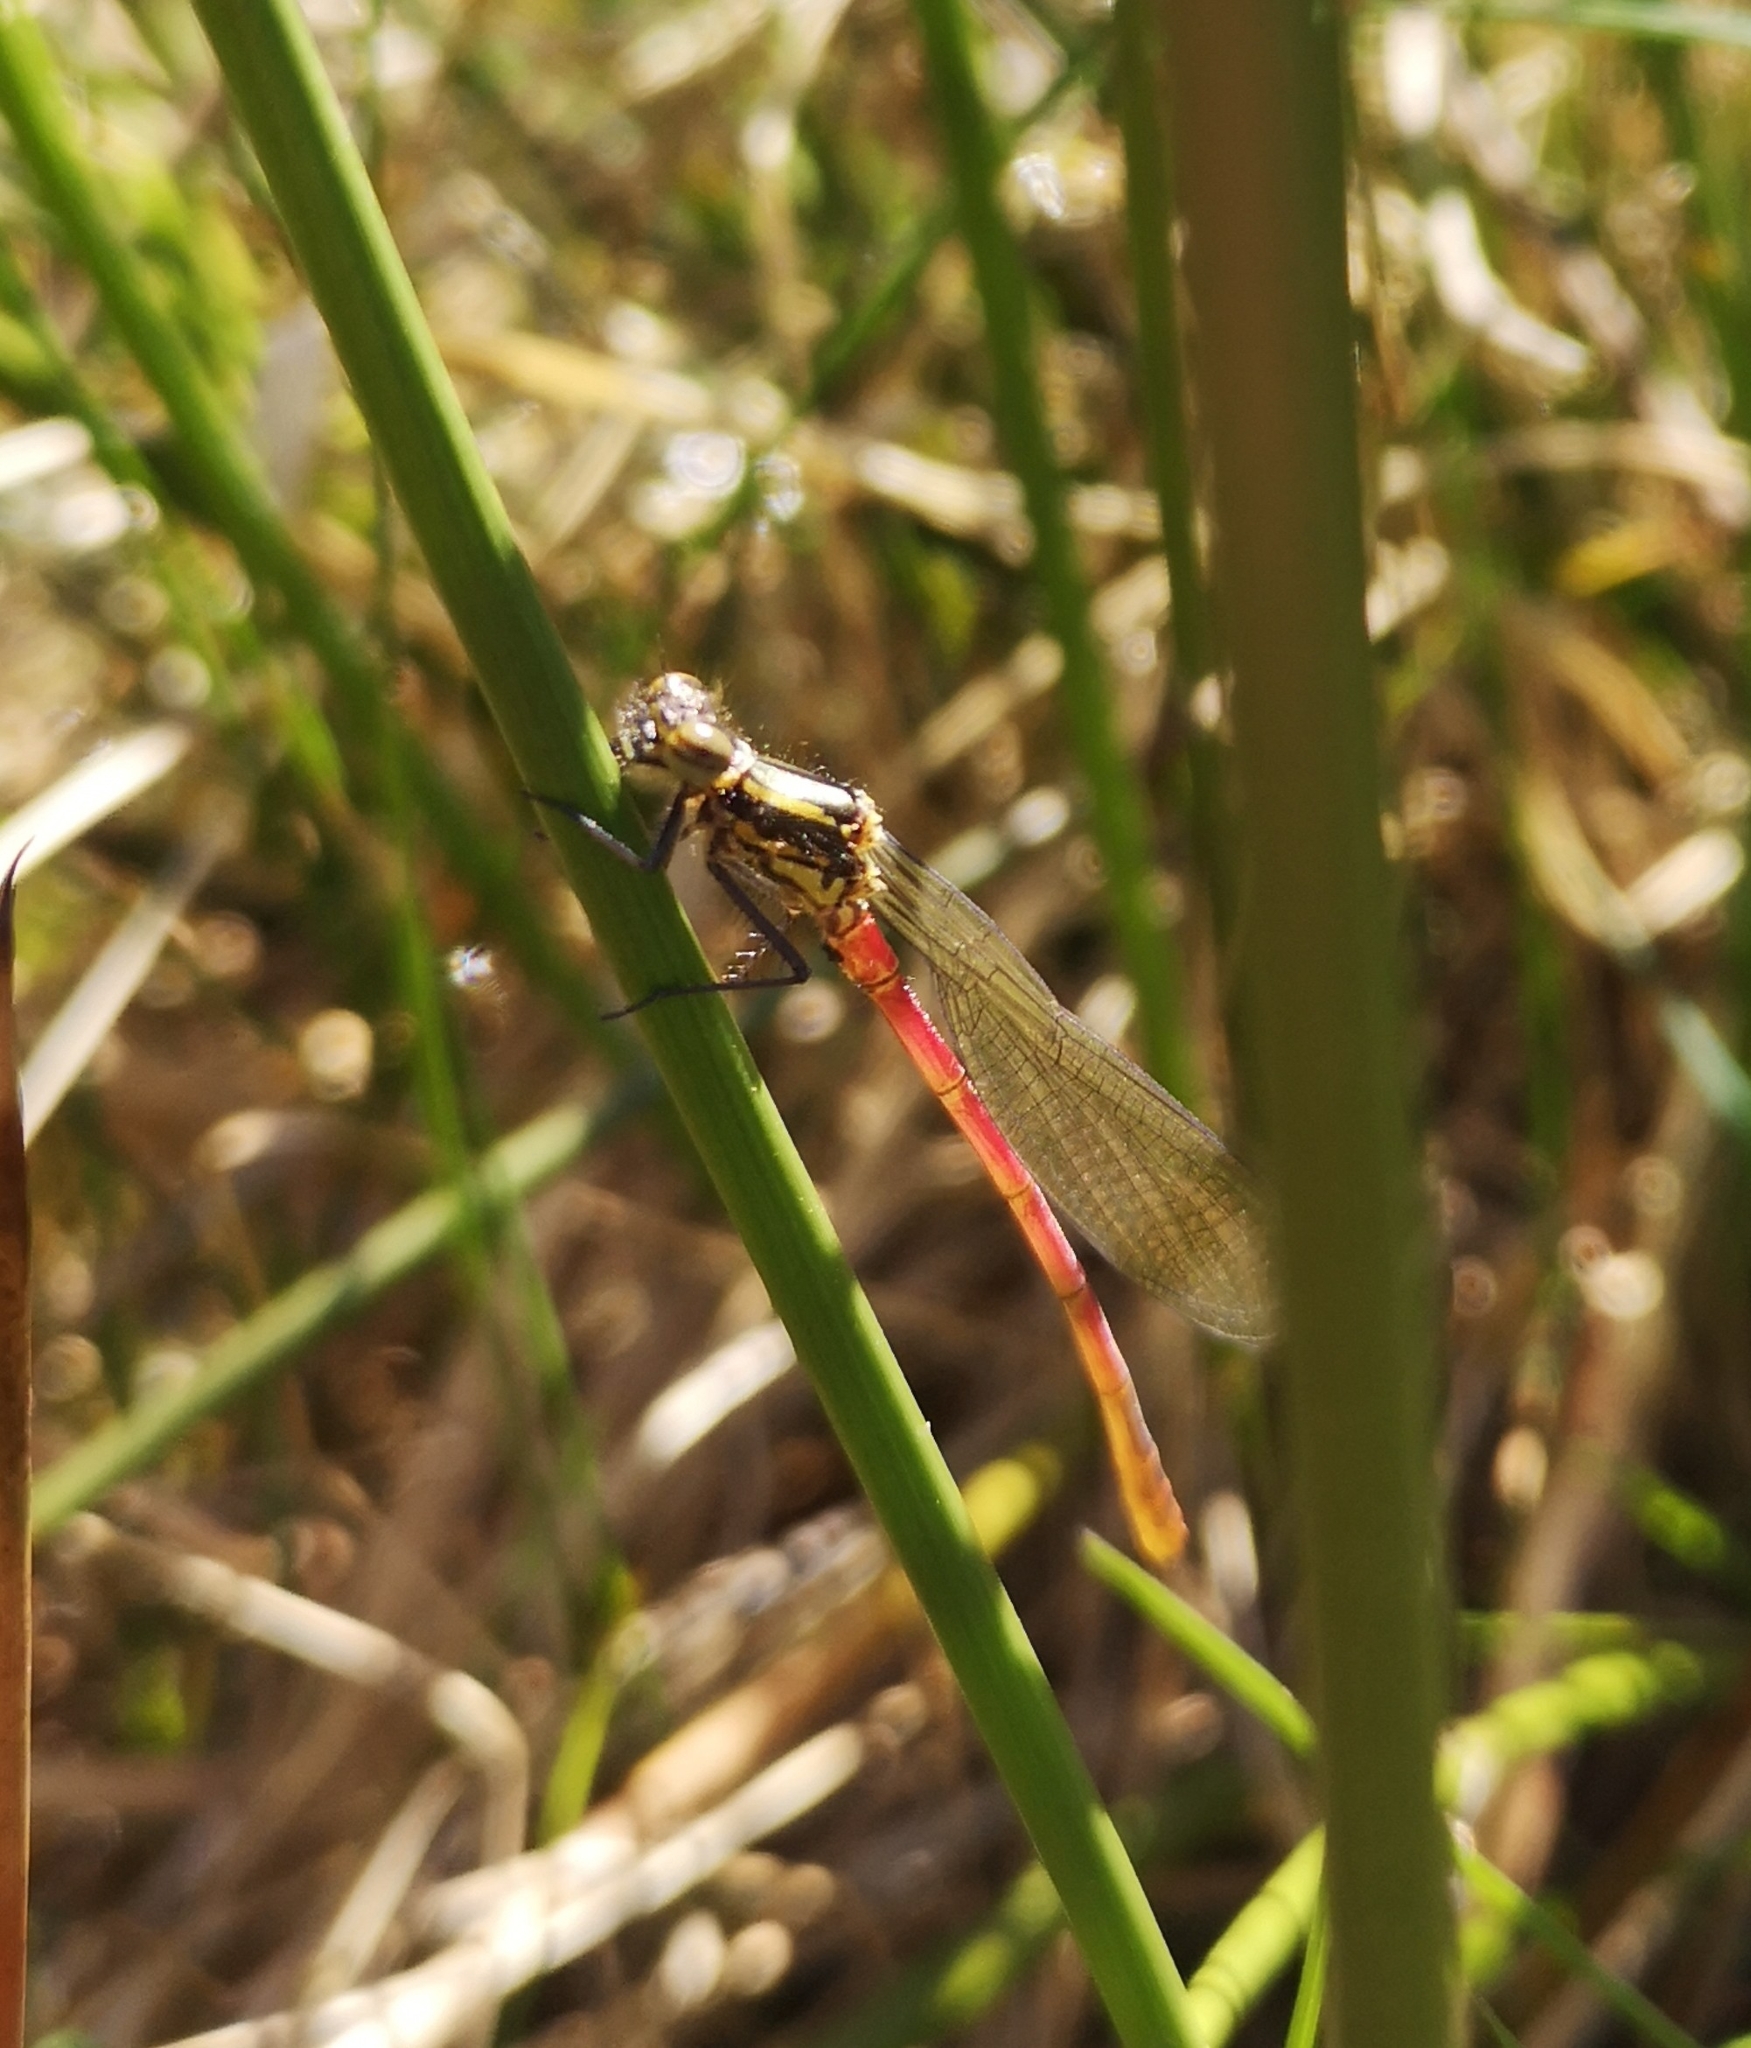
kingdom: Animalia
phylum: Arthropoda
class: Insecta
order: Odonata
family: Coenagrionidae
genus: Pyrrhosoma
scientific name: Pyrrhosoma nymphula
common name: Large red damsel
